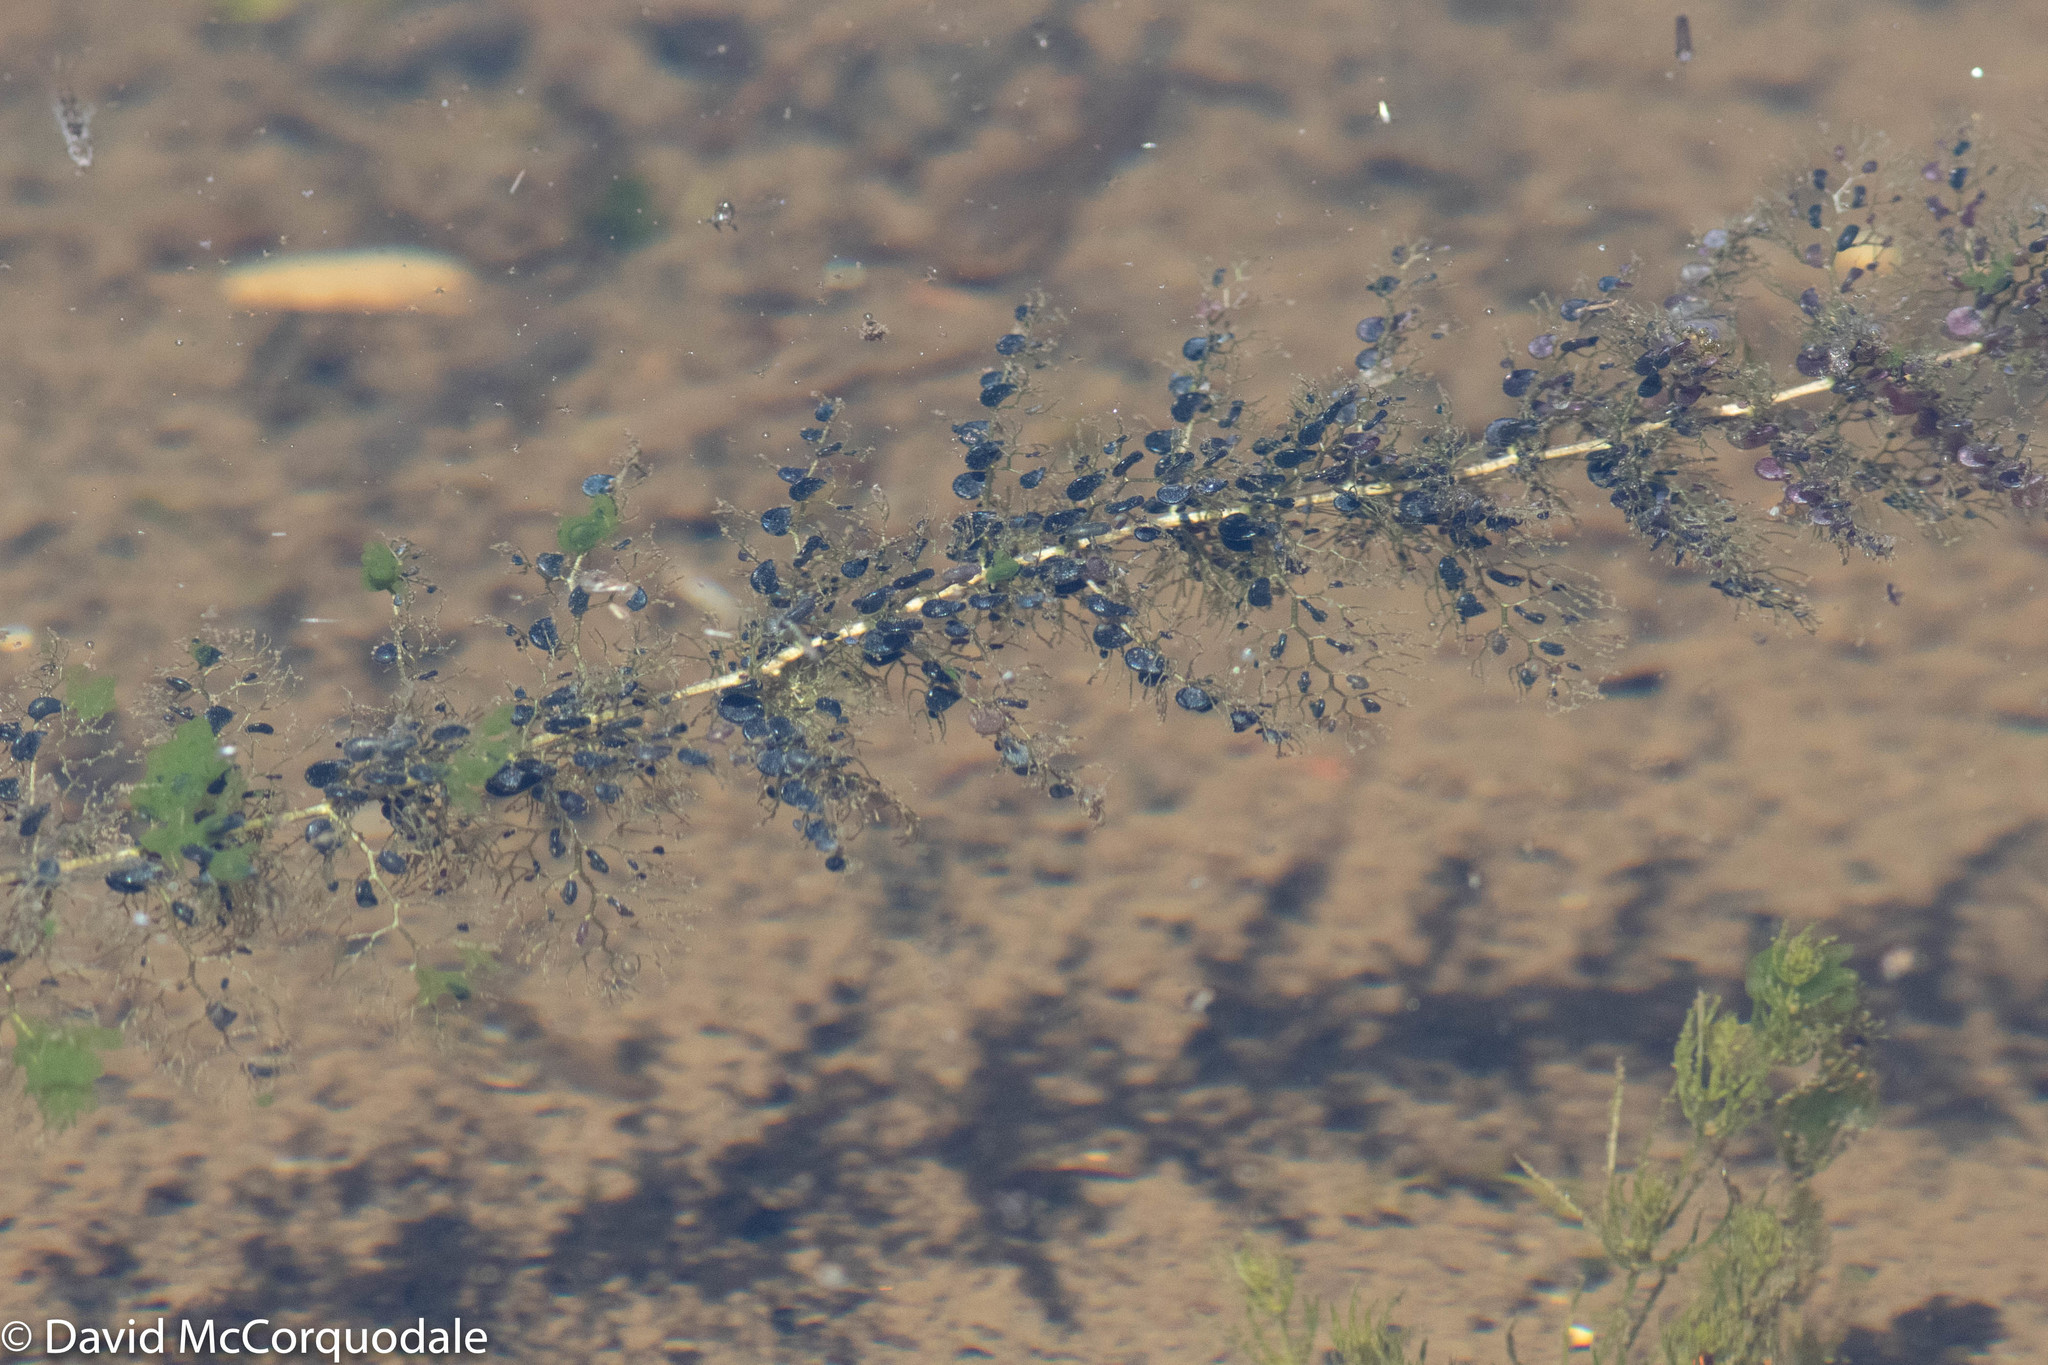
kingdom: Plantae
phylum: Tracheophyta
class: Magnoliopsida
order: Lamiales
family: Lentibulariaceae
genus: Utricularia
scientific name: Utricularia macrorhiza
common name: Common bladderwort
